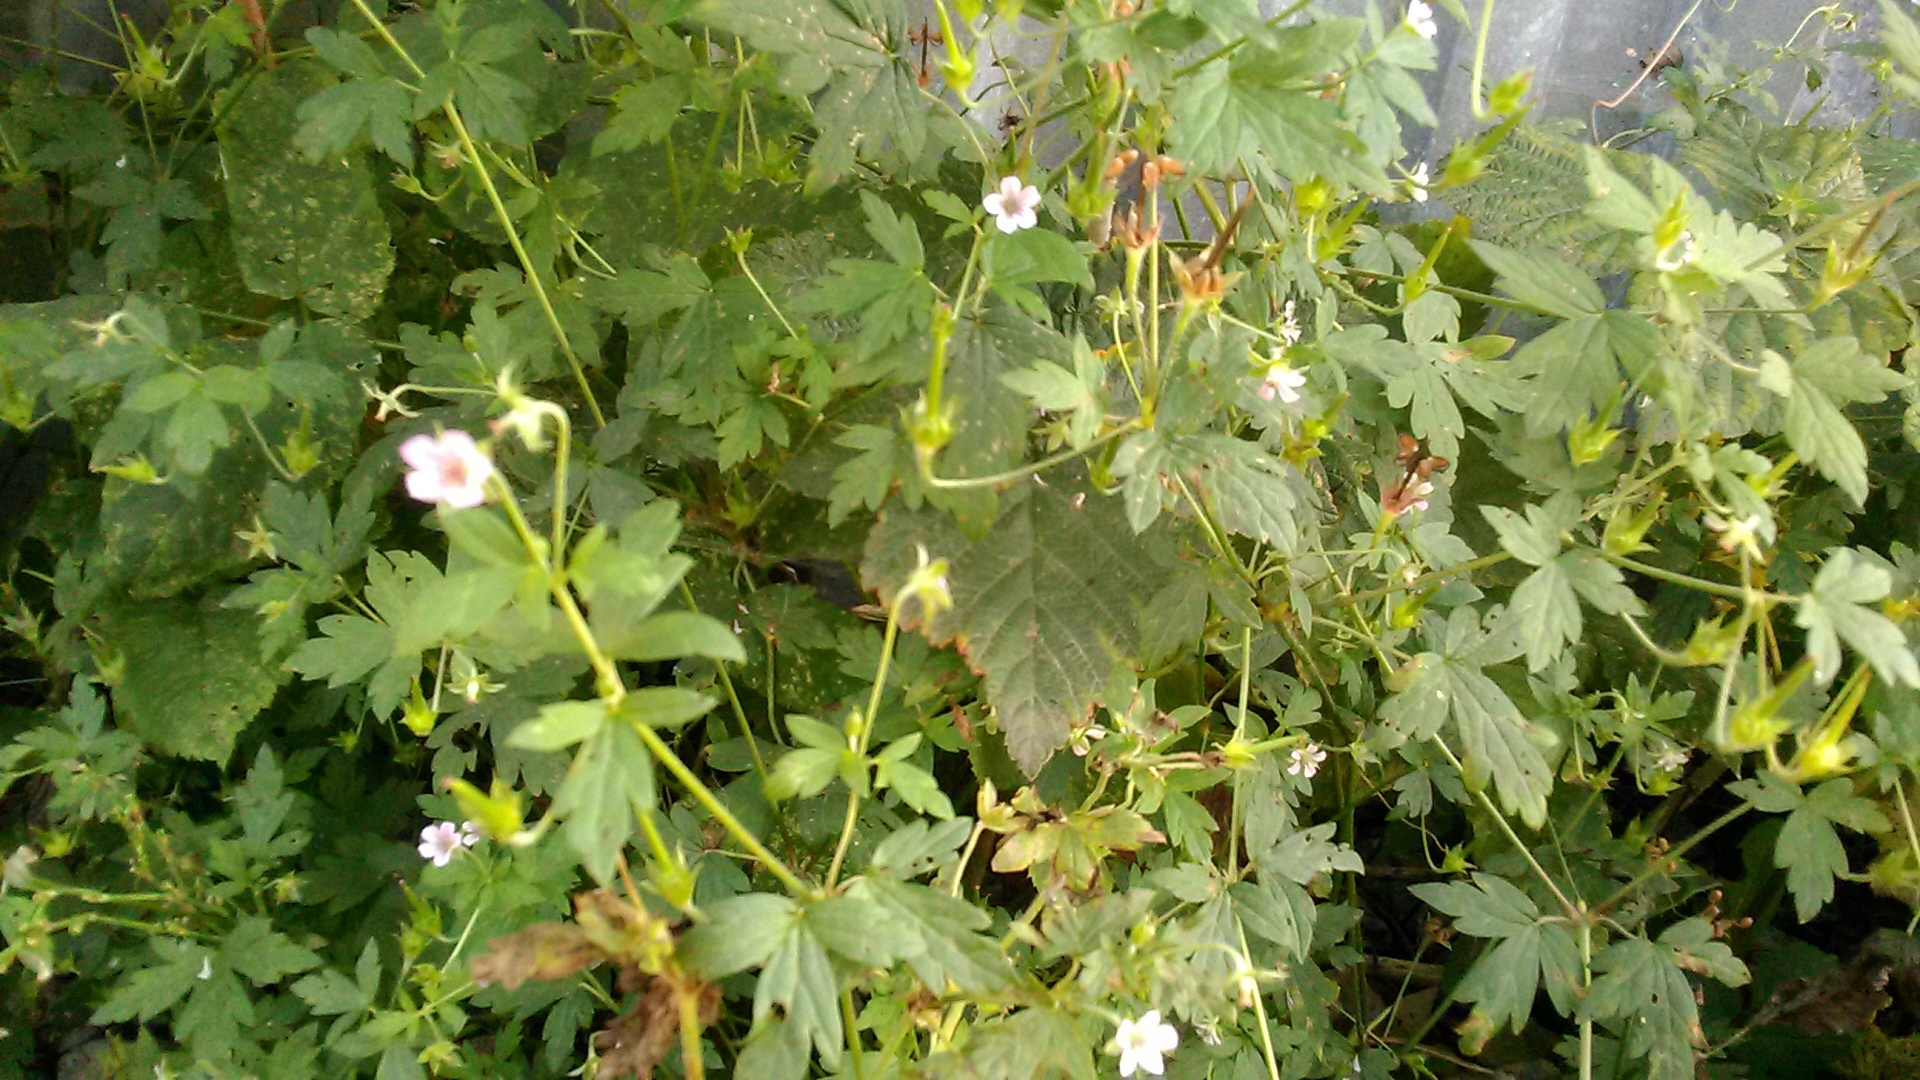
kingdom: Plantae
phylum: Tracheophyta
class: Magnoliopsida
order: Geraniales
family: Geraniaceae
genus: Geranium
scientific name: Geranium sibiricum
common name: Siberian crane's-bill
